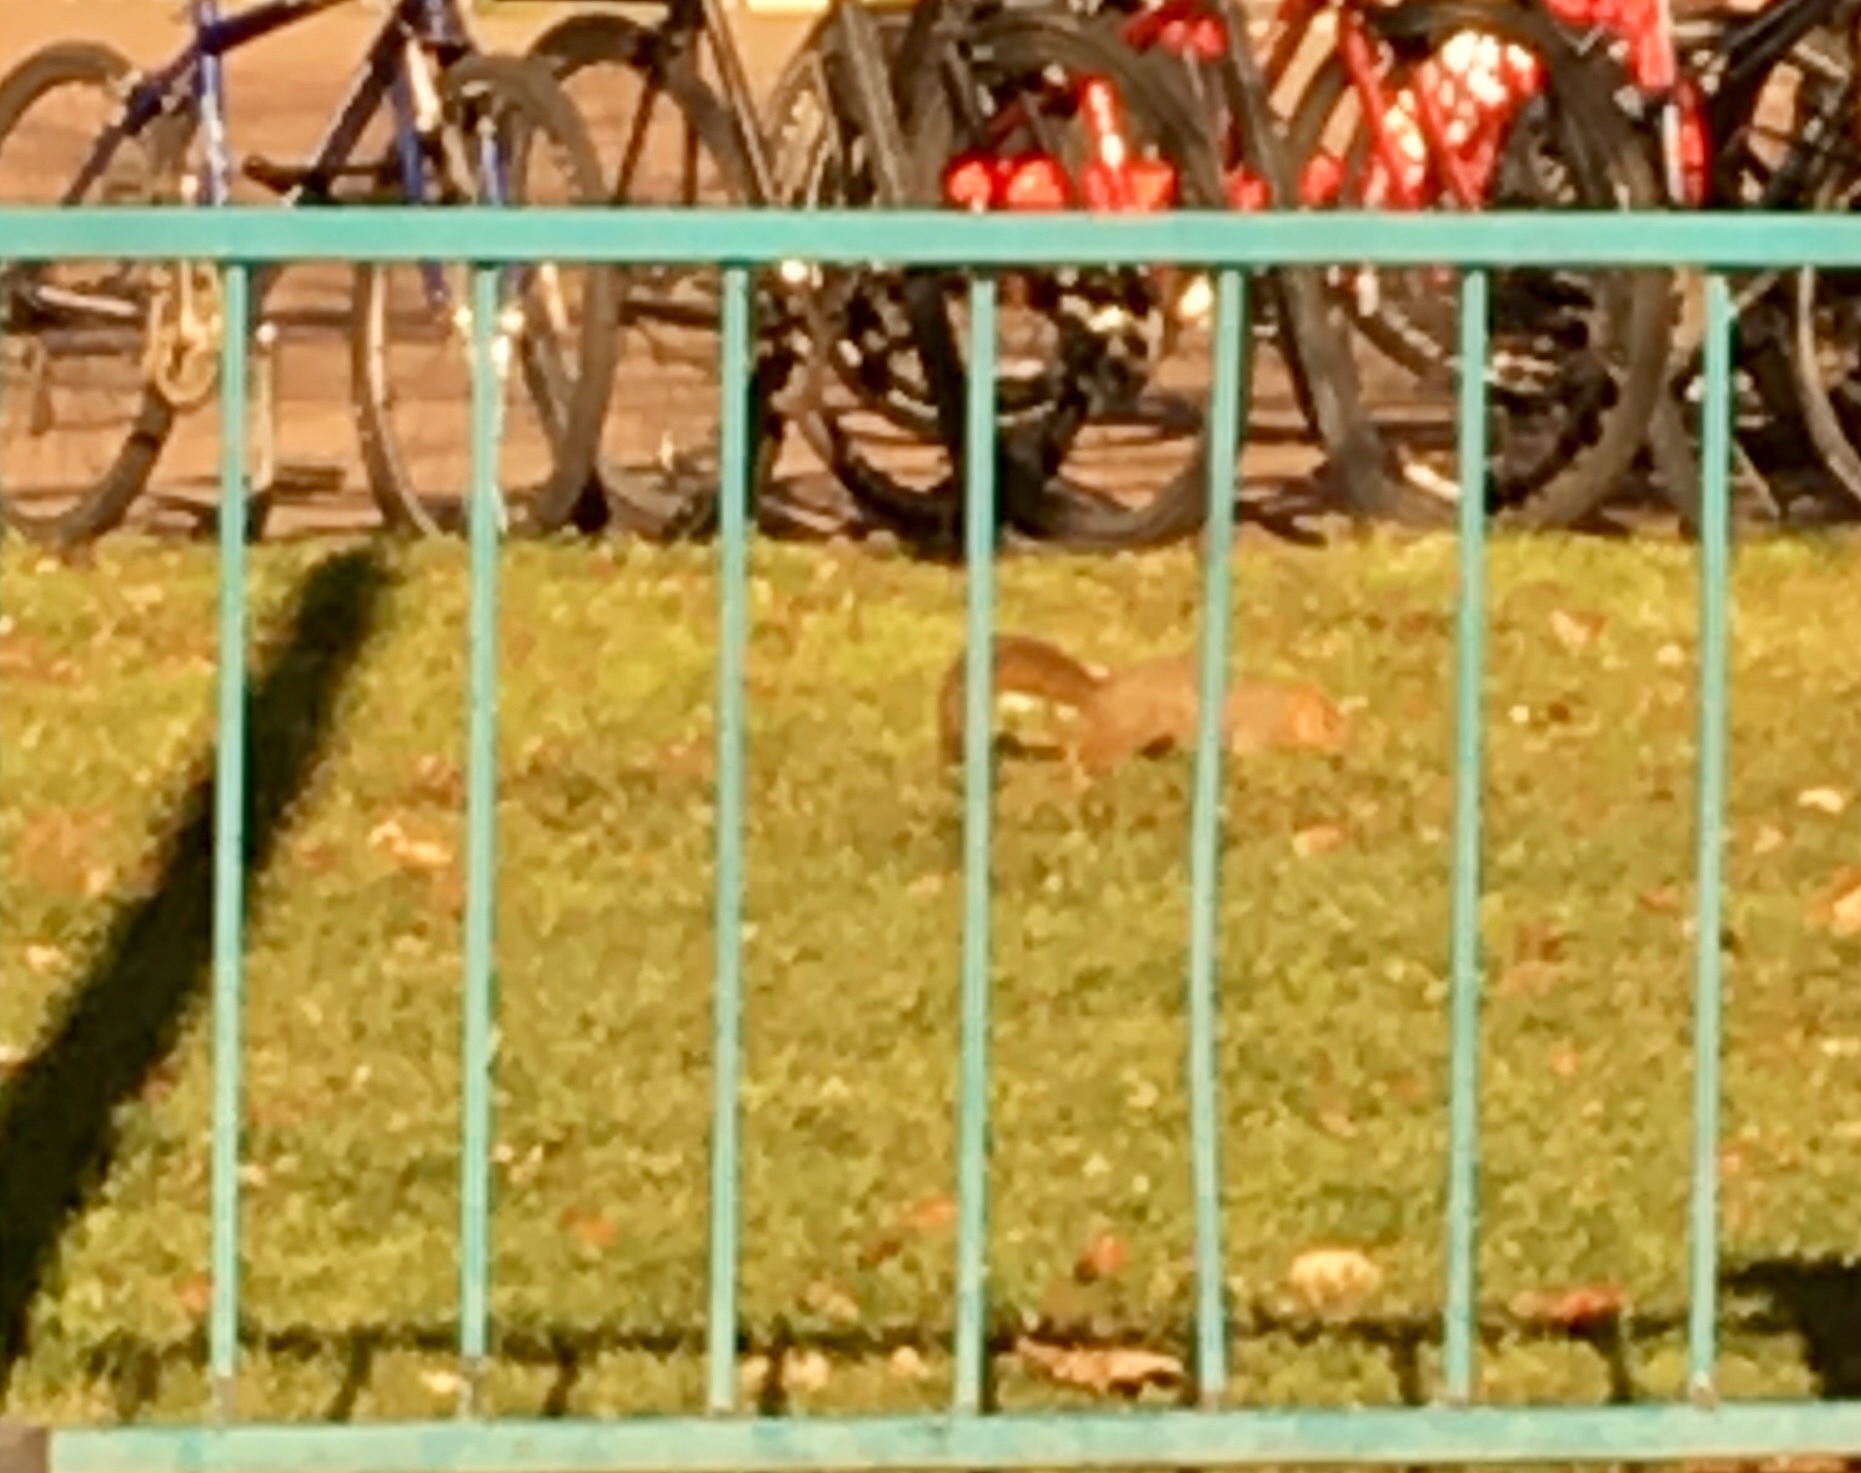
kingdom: Animalia
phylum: Chordata
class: Mammalia
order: Rodentia
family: Sciuridae
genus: Sciurus
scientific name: Sciurus niger
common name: Fox squirrel
